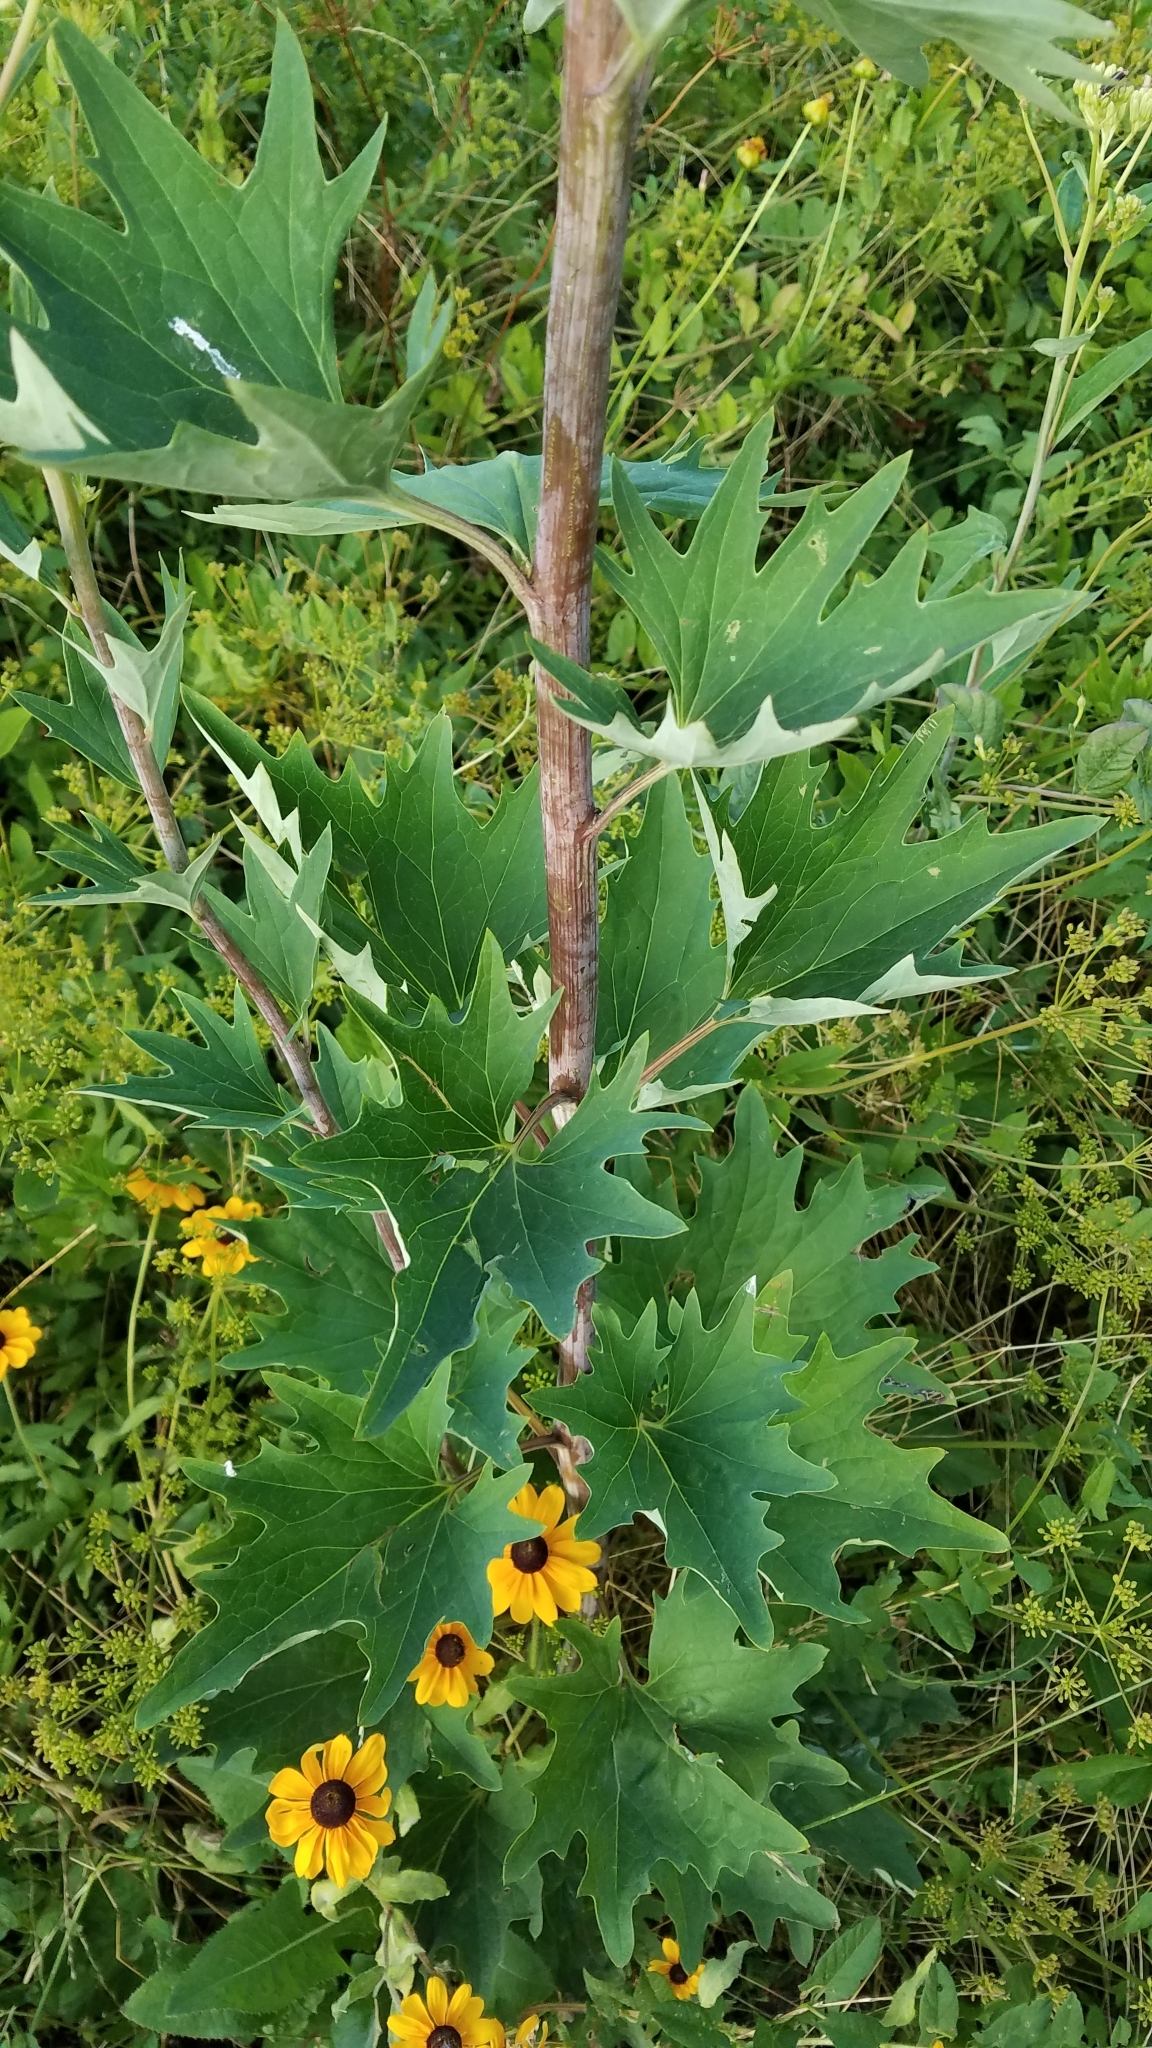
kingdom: Plantae
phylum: Tracheophyta
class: Magnoliopsida
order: Asterales
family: Asteraceae
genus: Arnoglossum
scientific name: Arnoglossum atriplicifolium
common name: Pale indian-plantain
